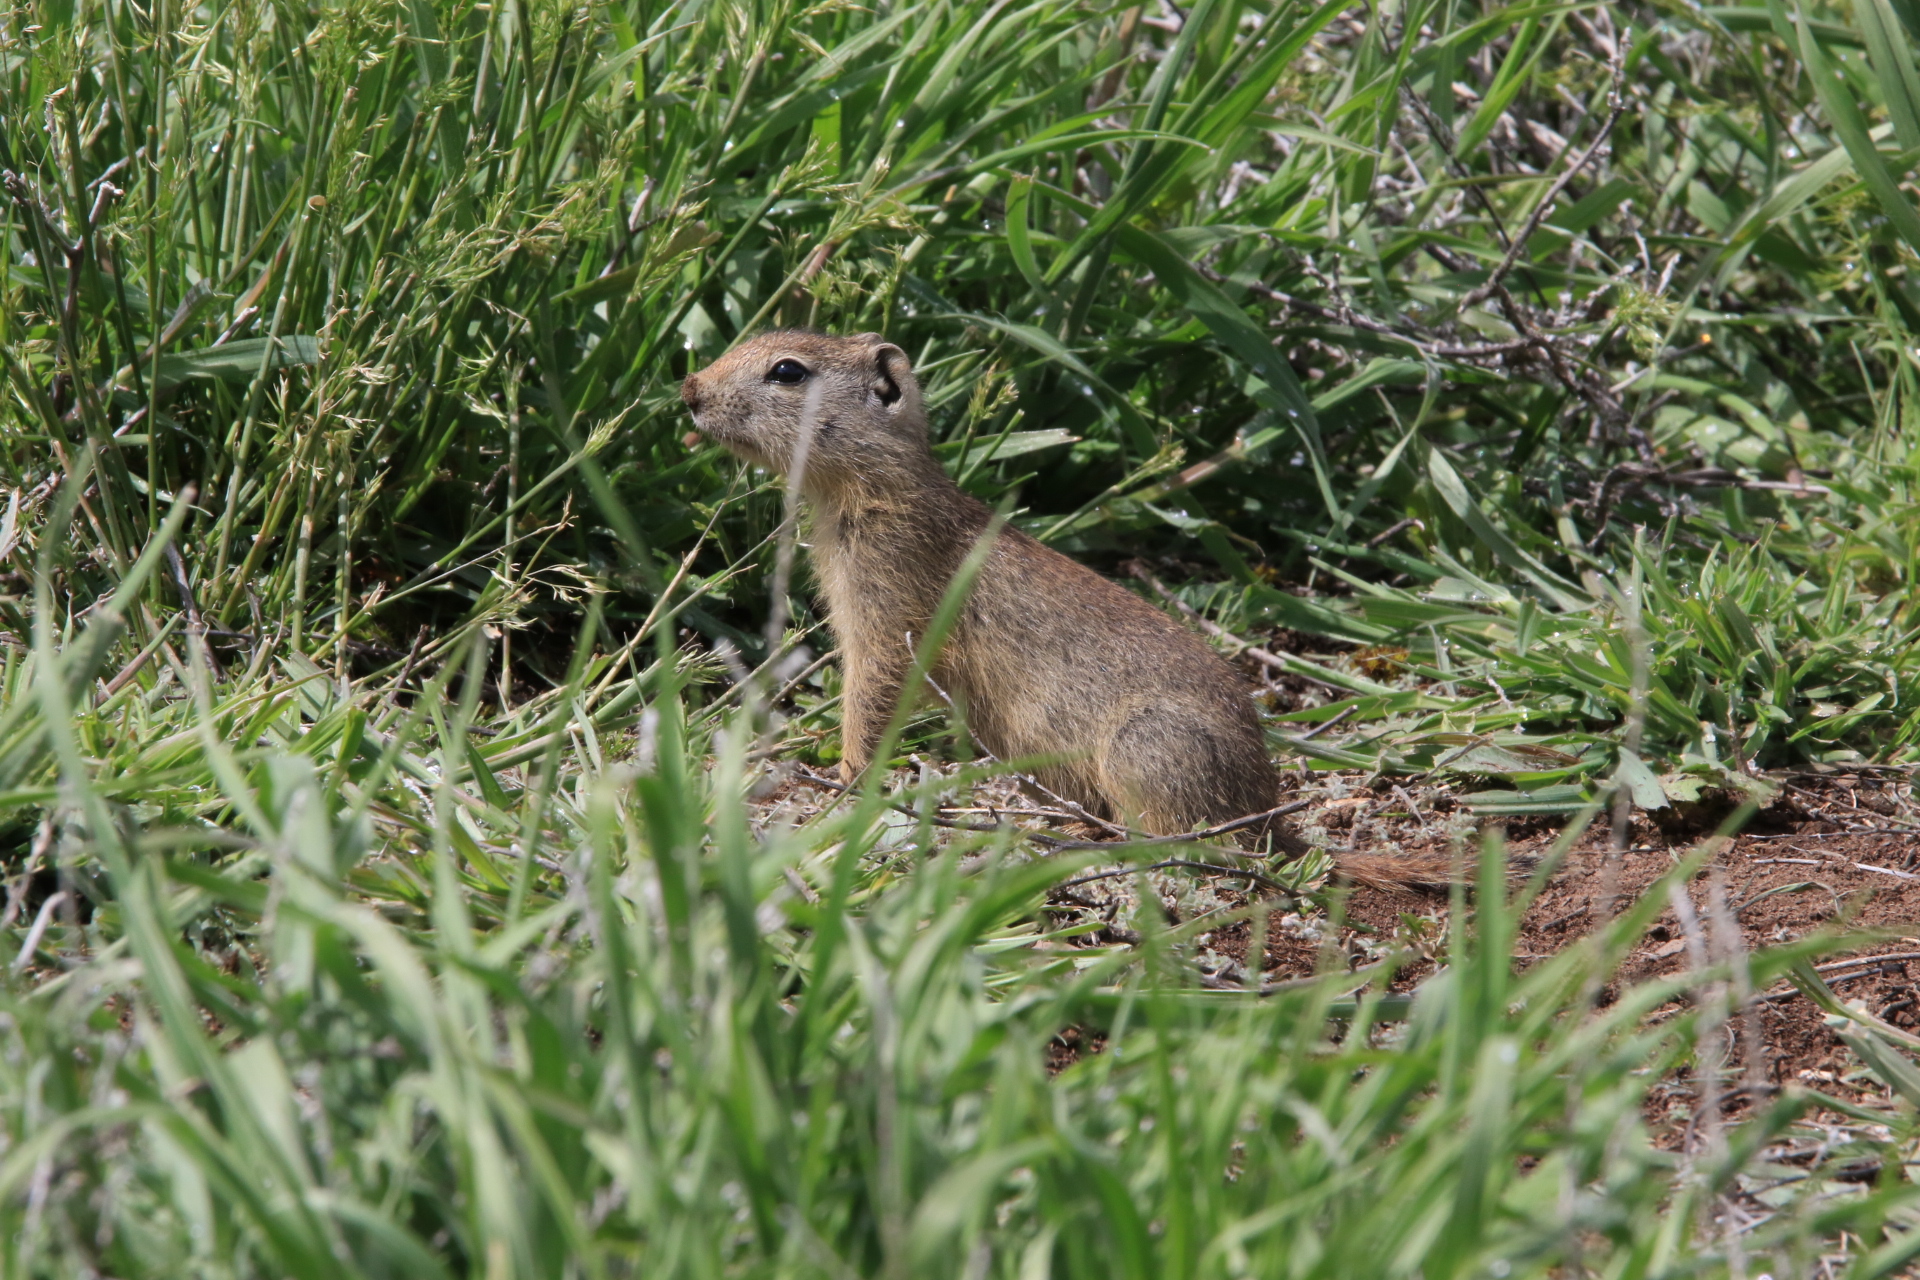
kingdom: Animalia
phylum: Chordata
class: Mammalia
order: Rodentia
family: Sciuridae
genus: Urocitellus
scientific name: Urocitellus beldingi
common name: Belding's ground squirrel
